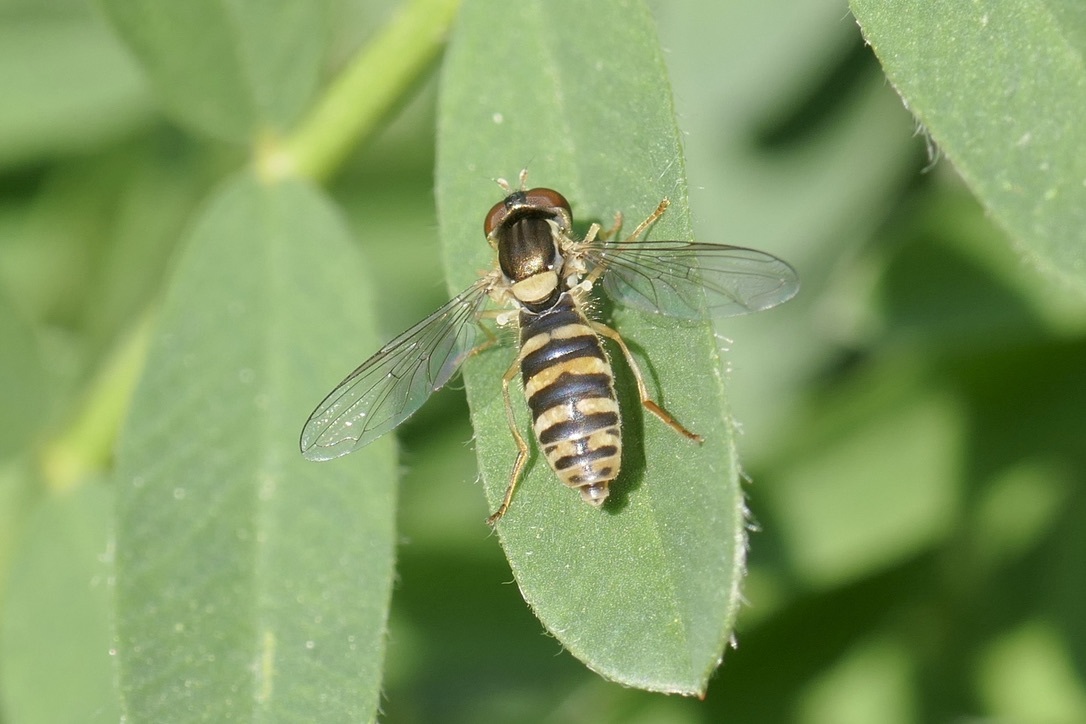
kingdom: Animalia
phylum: Arthropoda
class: Insecta
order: Diptera
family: Syrphidae
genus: Sphaerophoria
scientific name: Sphaerophoria
